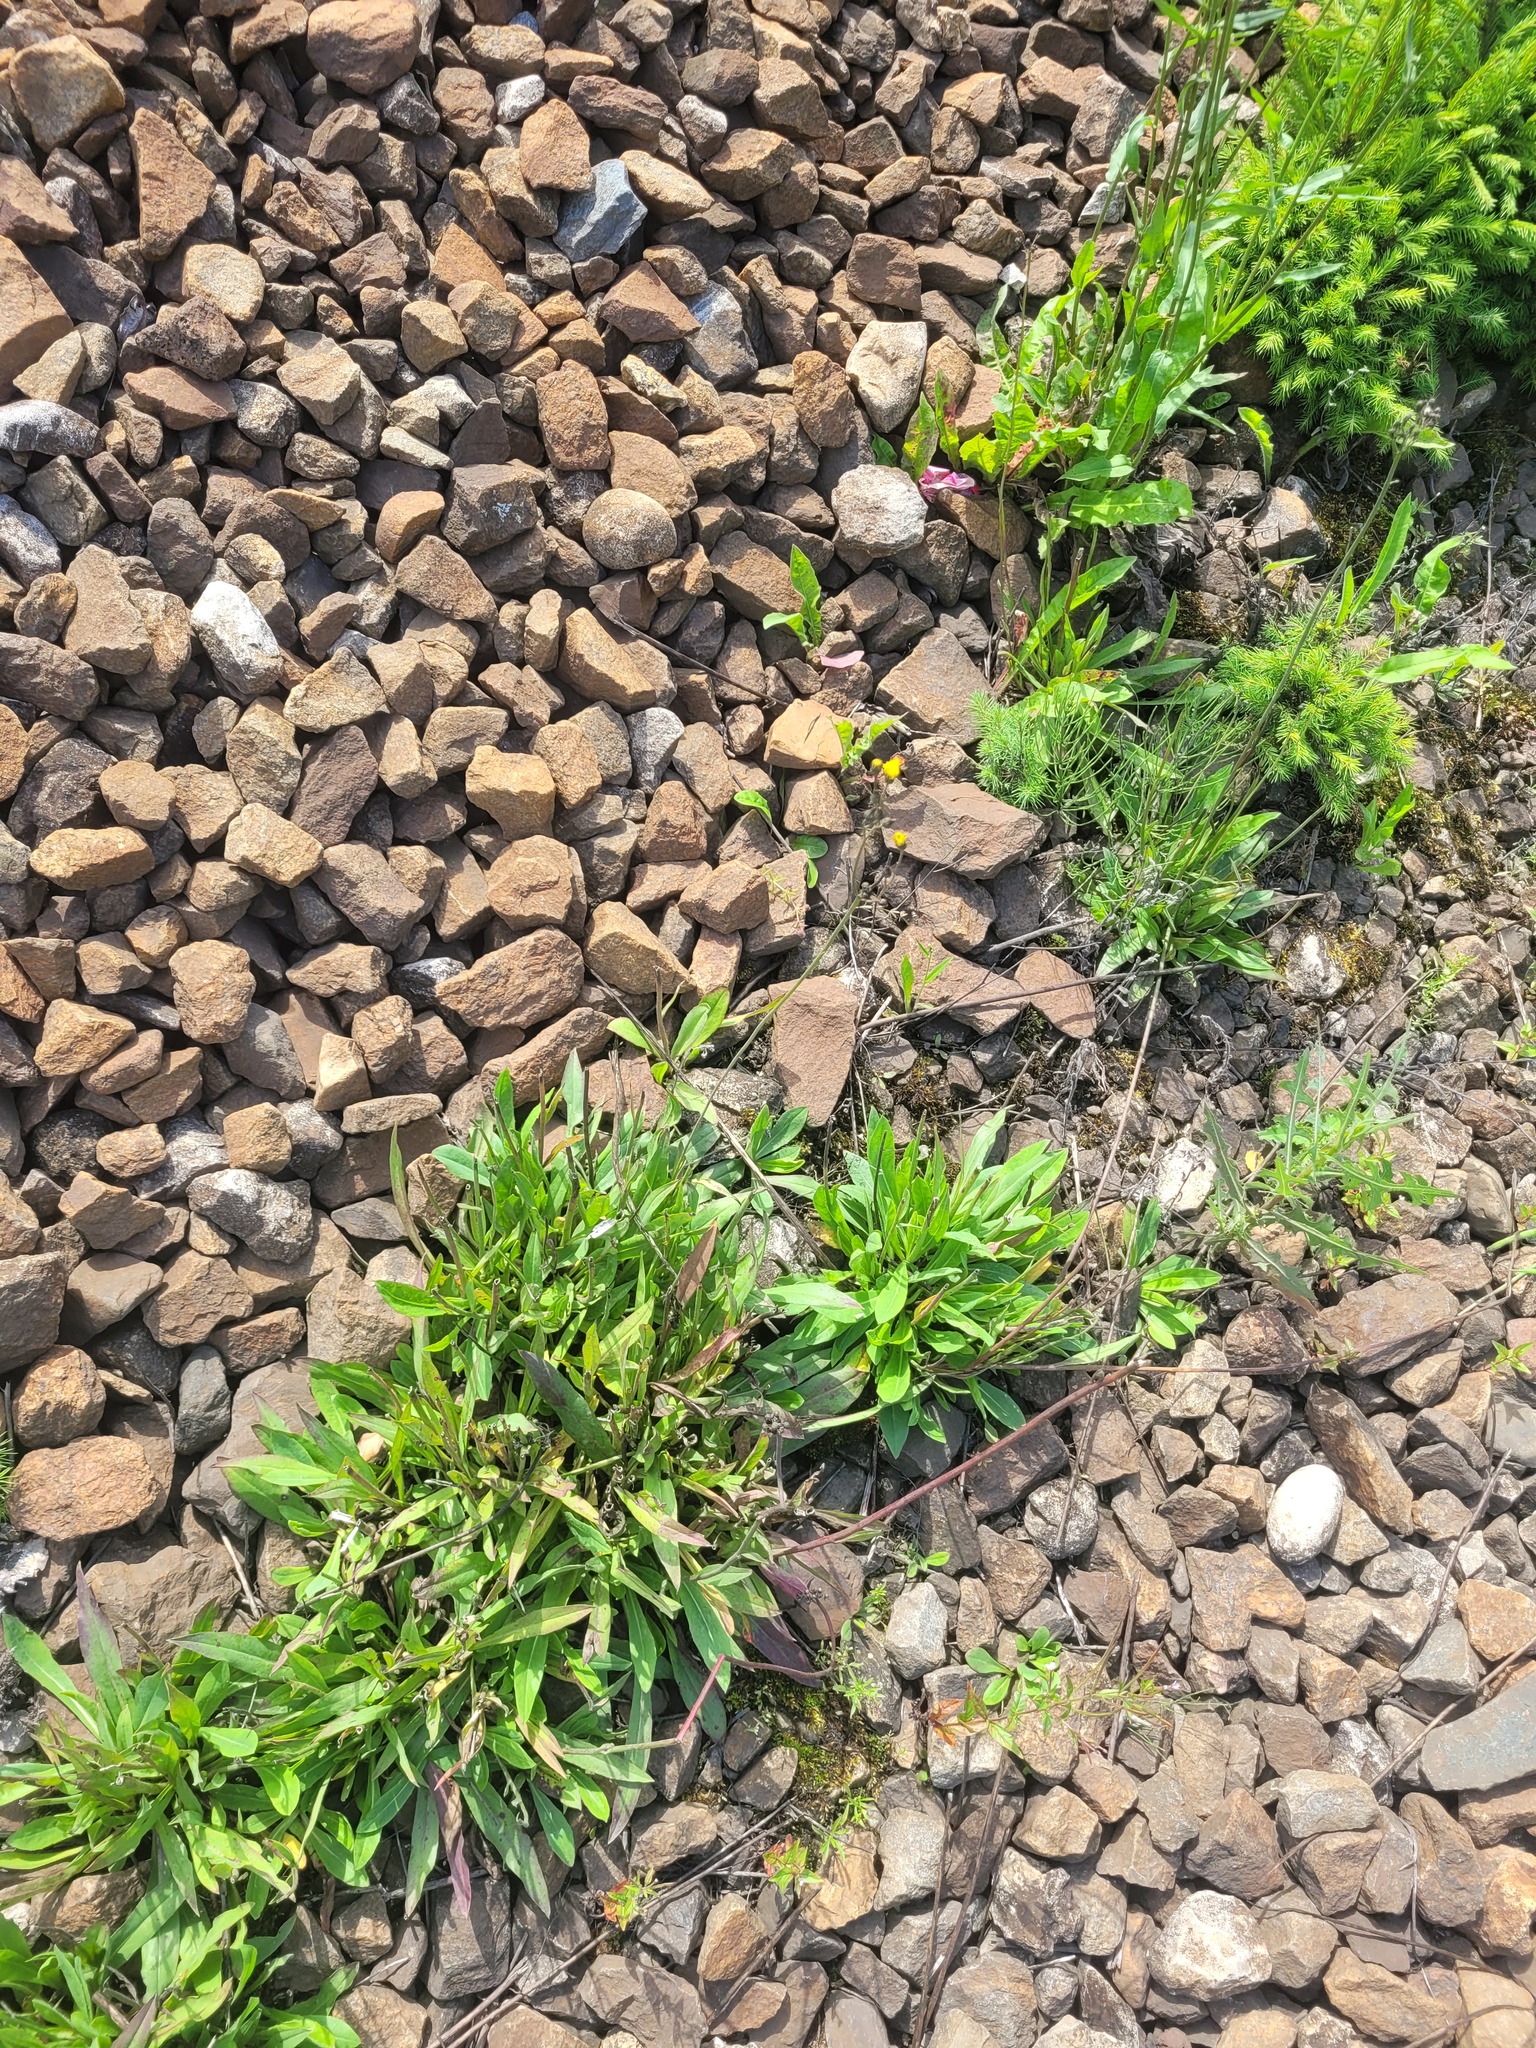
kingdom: Plantae
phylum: Tracheophyta
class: Magnoliopsida
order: Asterales
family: Asteraceae
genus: Pilosella
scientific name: Pilosella
